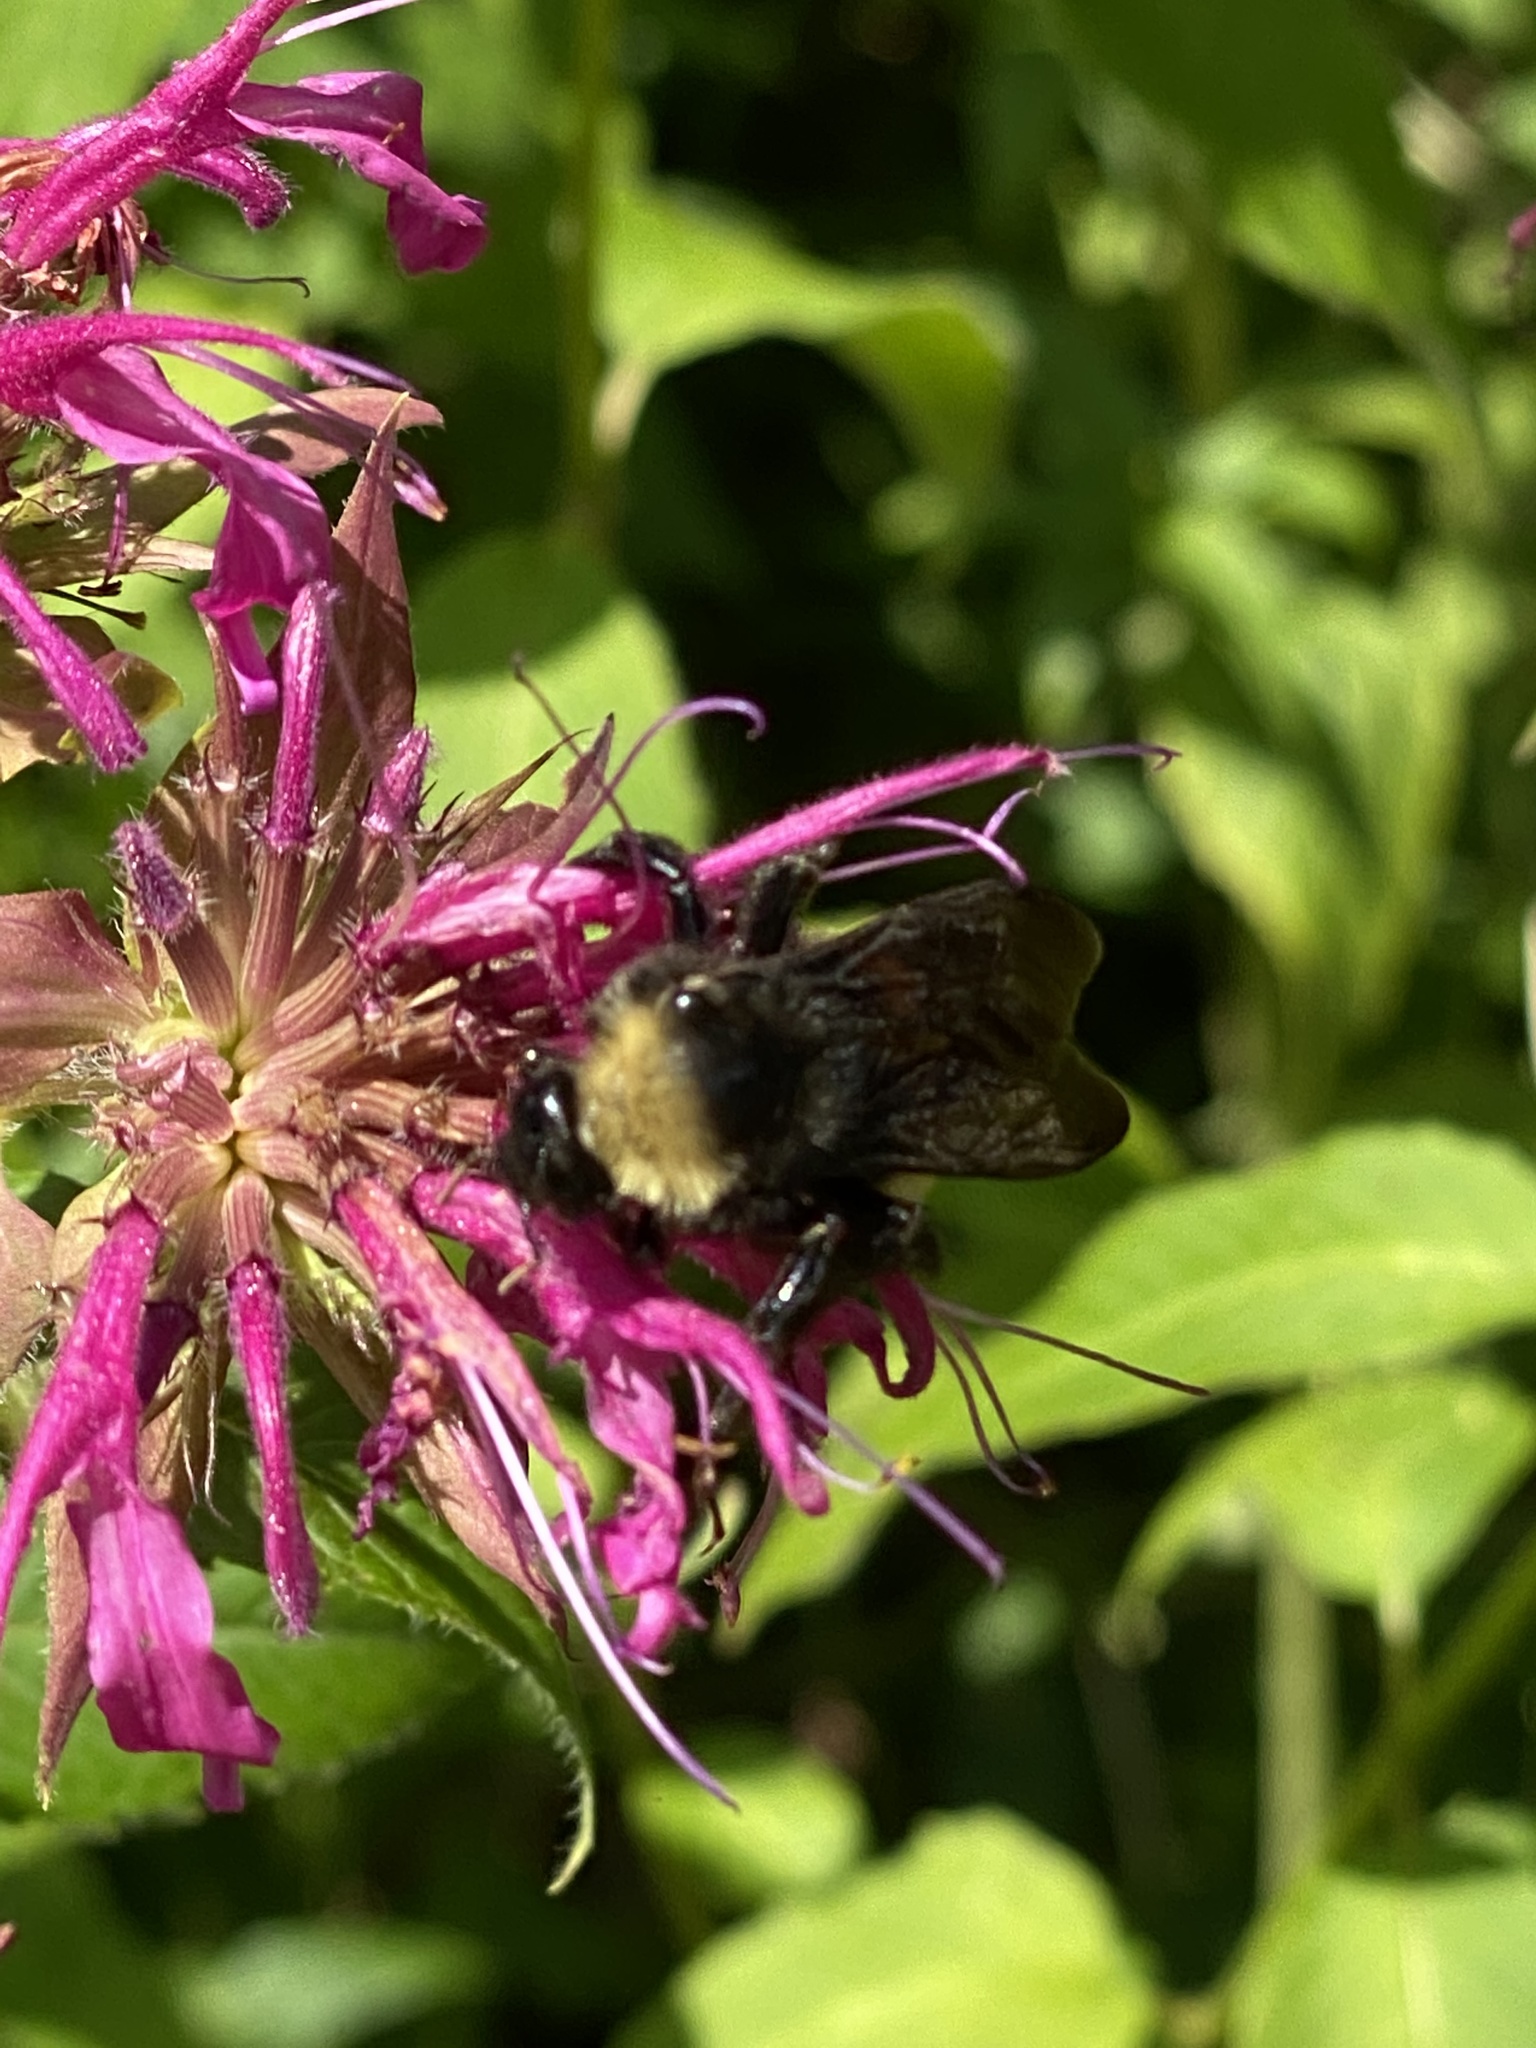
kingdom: Animalia
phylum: Arthropoda
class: Insecta
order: Hymenoptera
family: Apidae
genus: Bombus
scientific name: Bombus pensylvanicus
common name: Bumble bee
